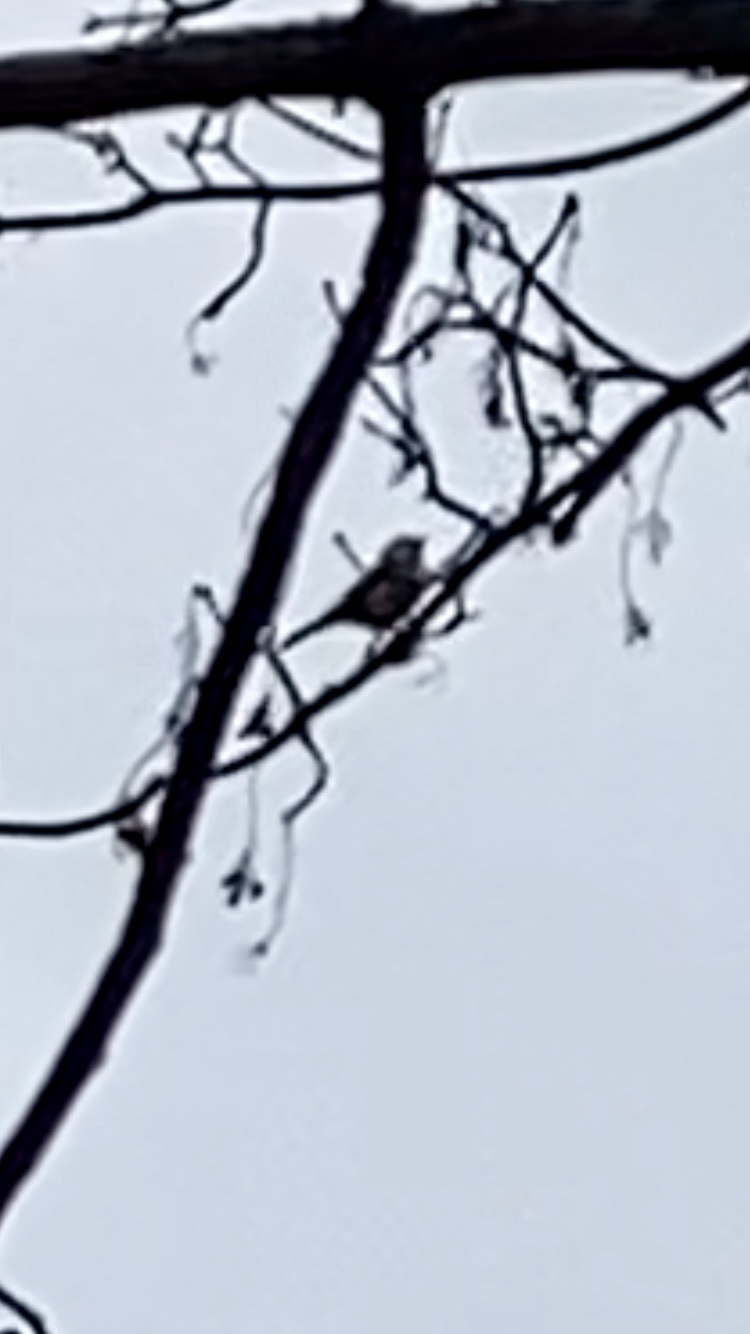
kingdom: Animalia
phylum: Chordata
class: Aves
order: Passeriformes
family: Paridae
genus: Cyanistes
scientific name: Cyanistes caeruleus
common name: Eurasian blue tit
